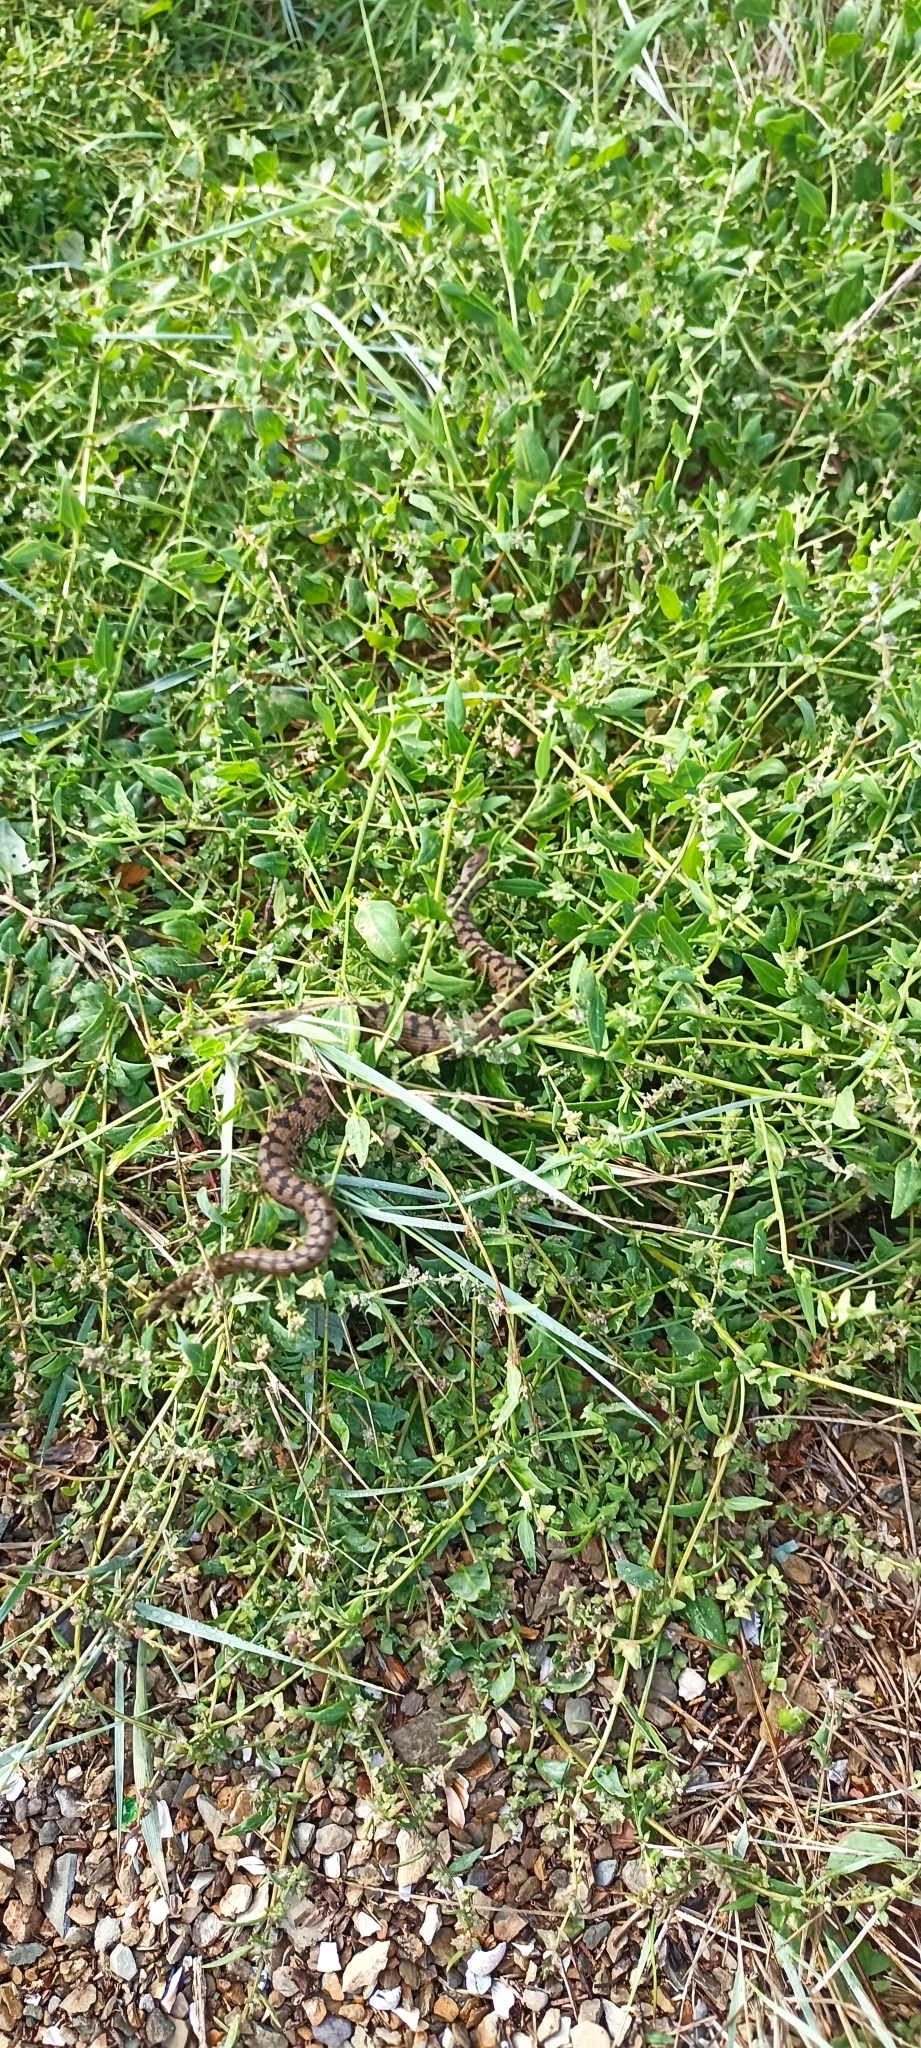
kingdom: Animalia
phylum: Chordata
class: Squamata
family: Viperidae
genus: Vipera
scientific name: Vipera aspis
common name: Asp viper
